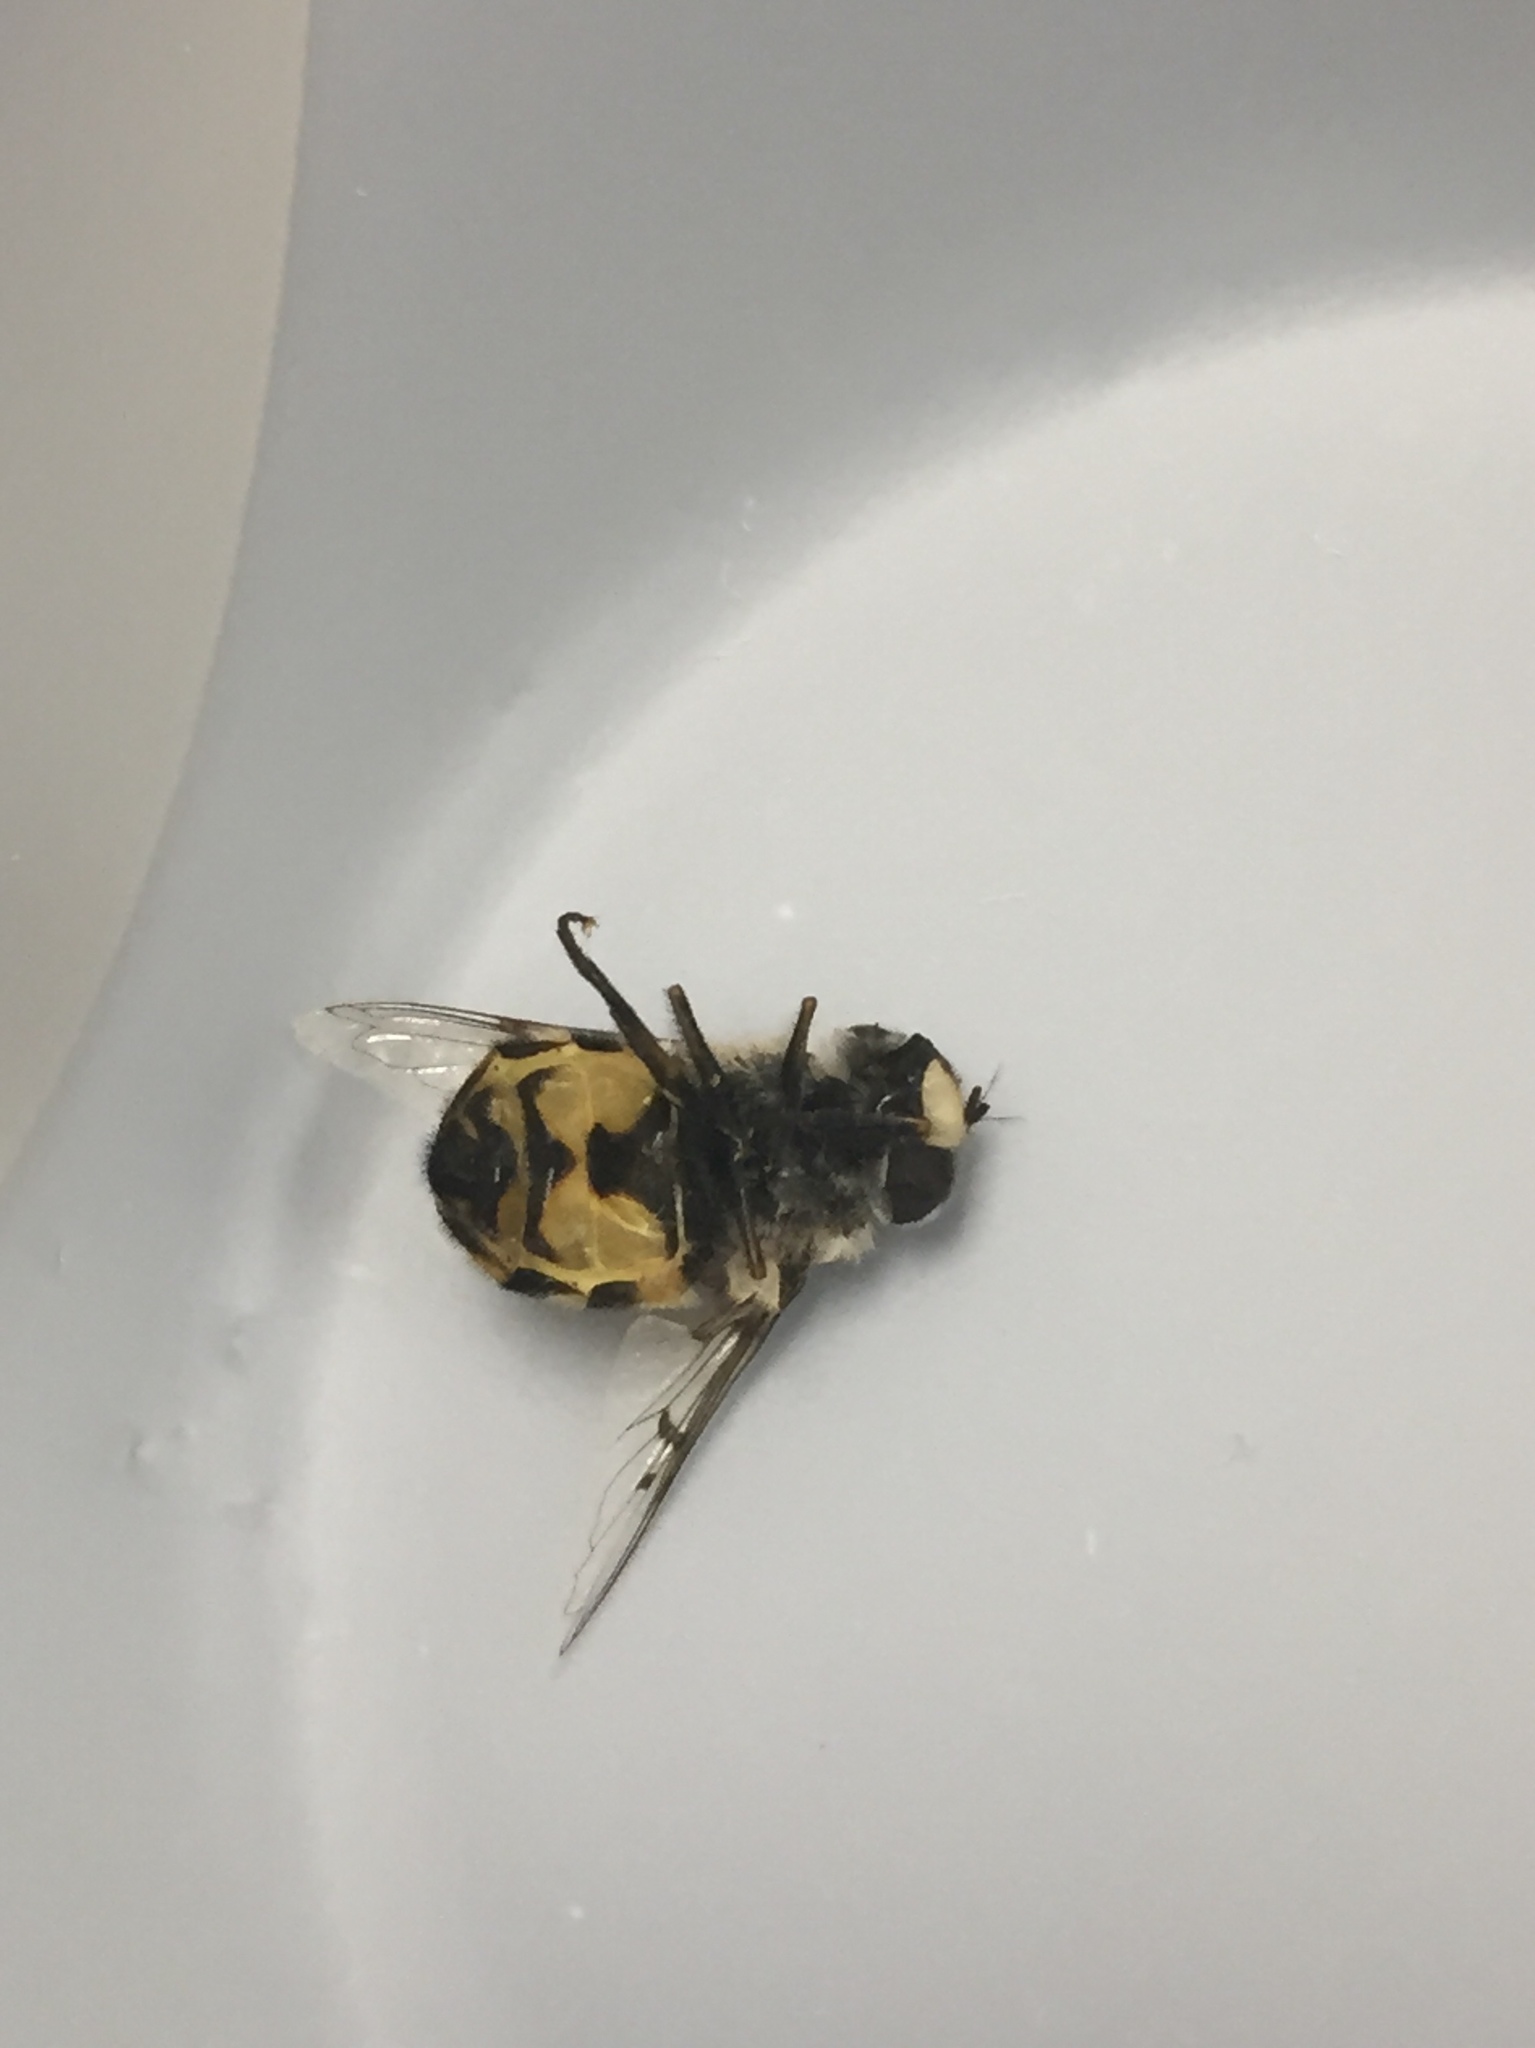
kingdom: Animalia
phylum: Arthropoda
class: Insecta
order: Diptera
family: Syrphidae
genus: Copestylum
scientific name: Copestylum avidum
